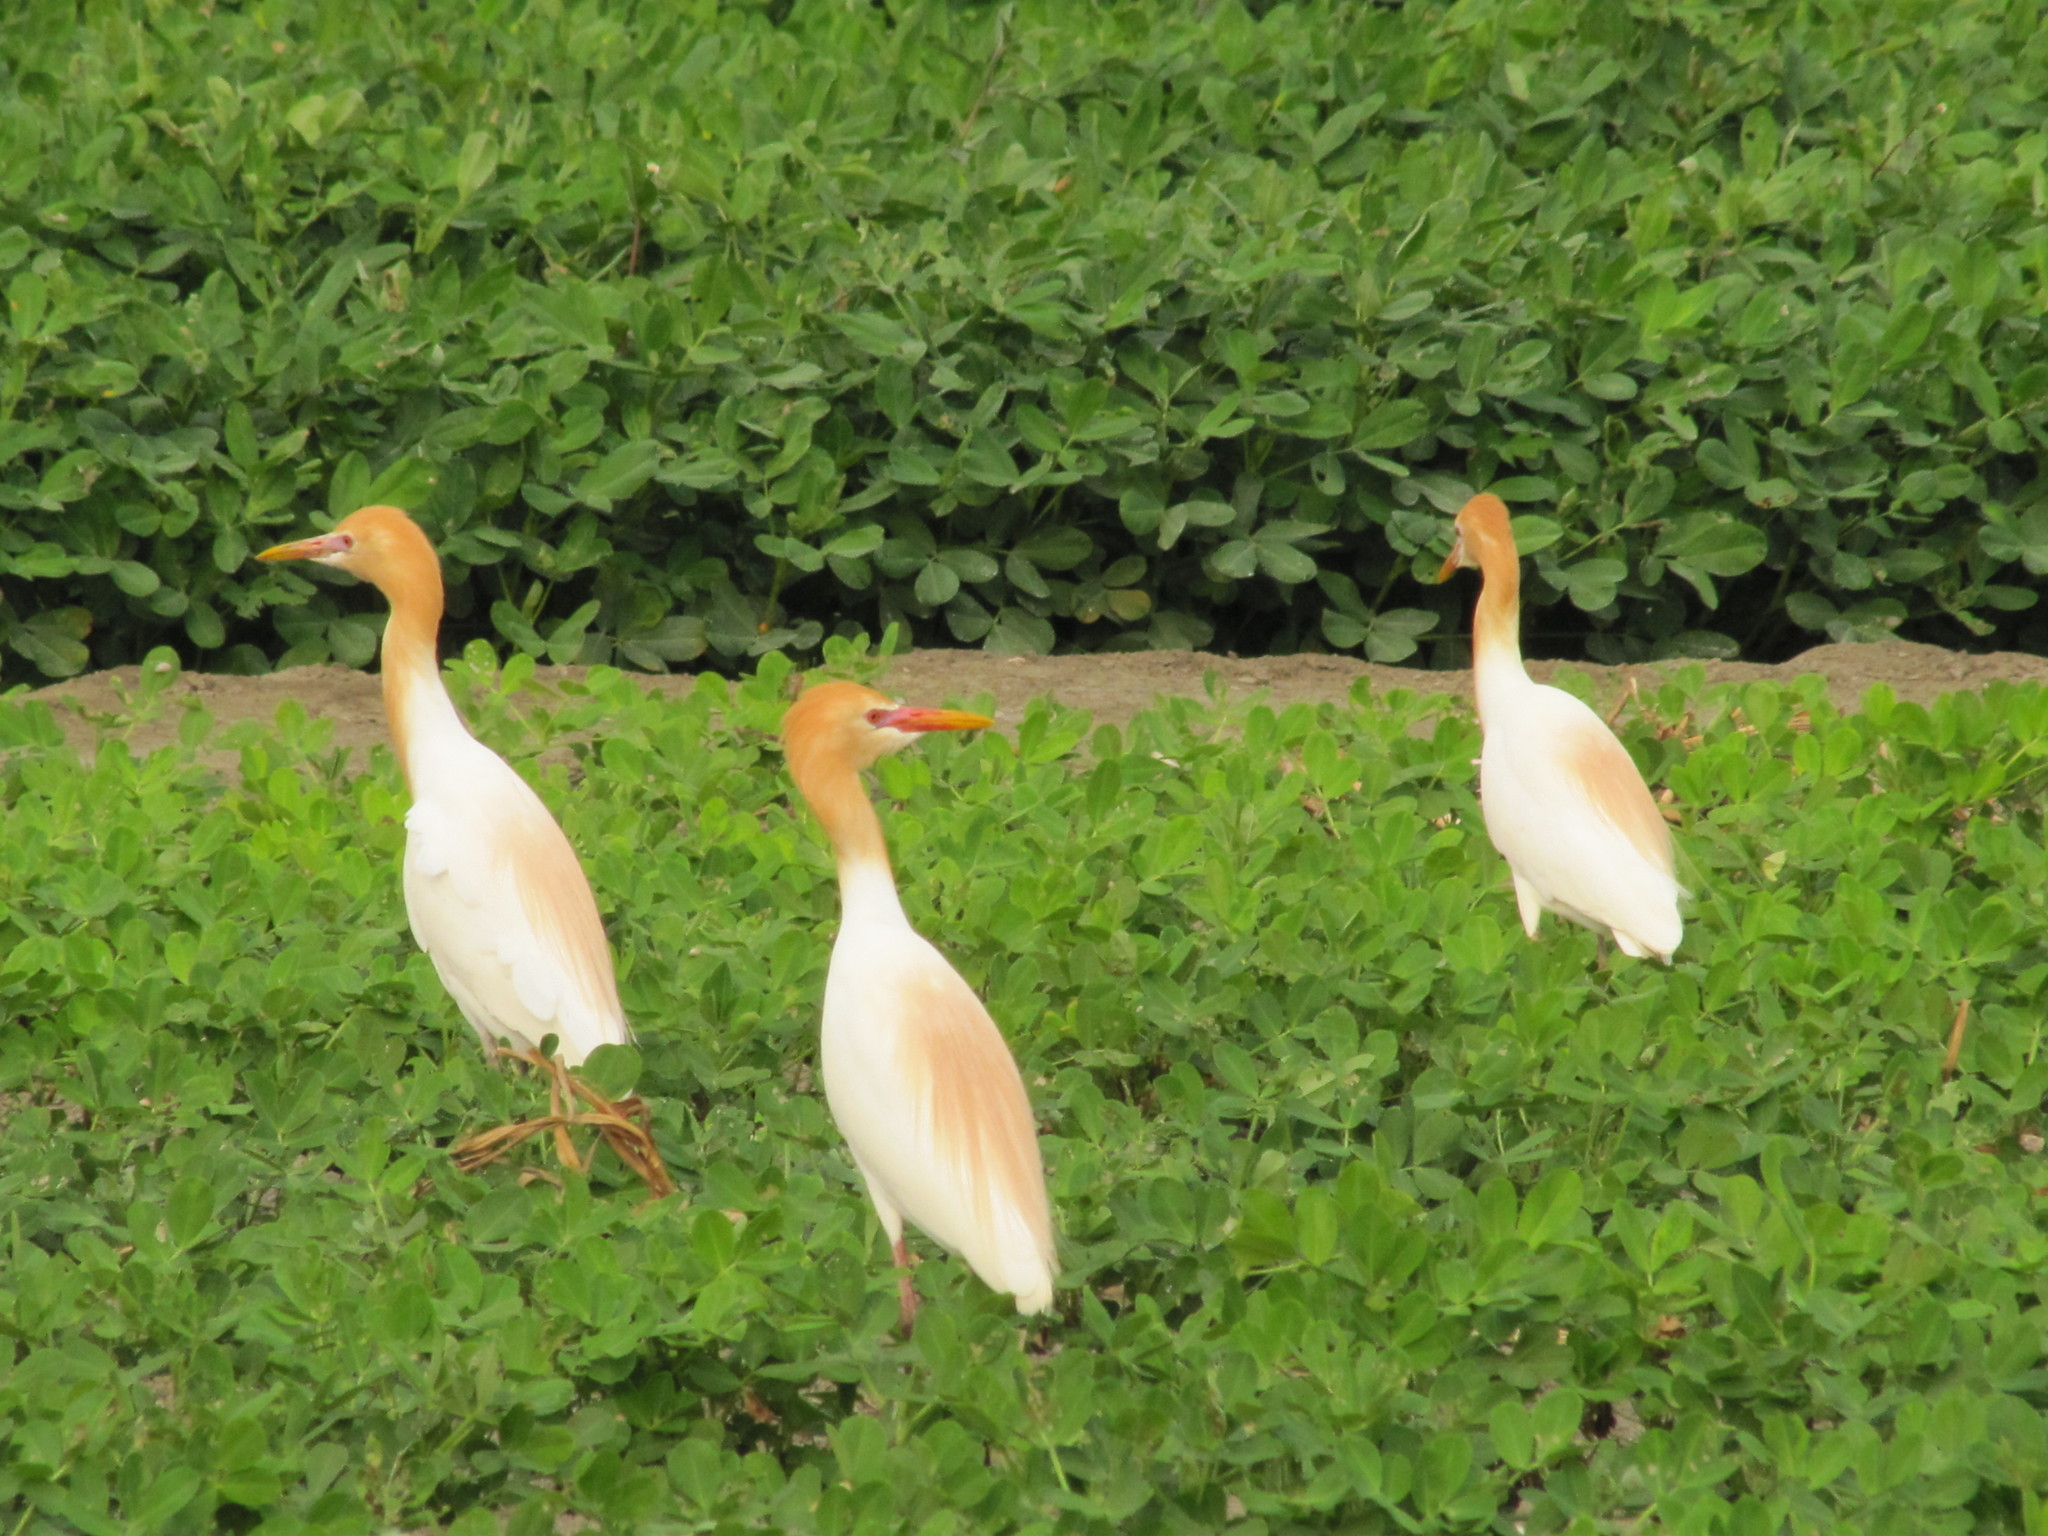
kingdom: Animalia
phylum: Chordata
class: Aves
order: Pelecaniformes
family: Ardeidae
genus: Bubulcus
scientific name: Bubulcus coromandus
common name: Eastern cattle egret
